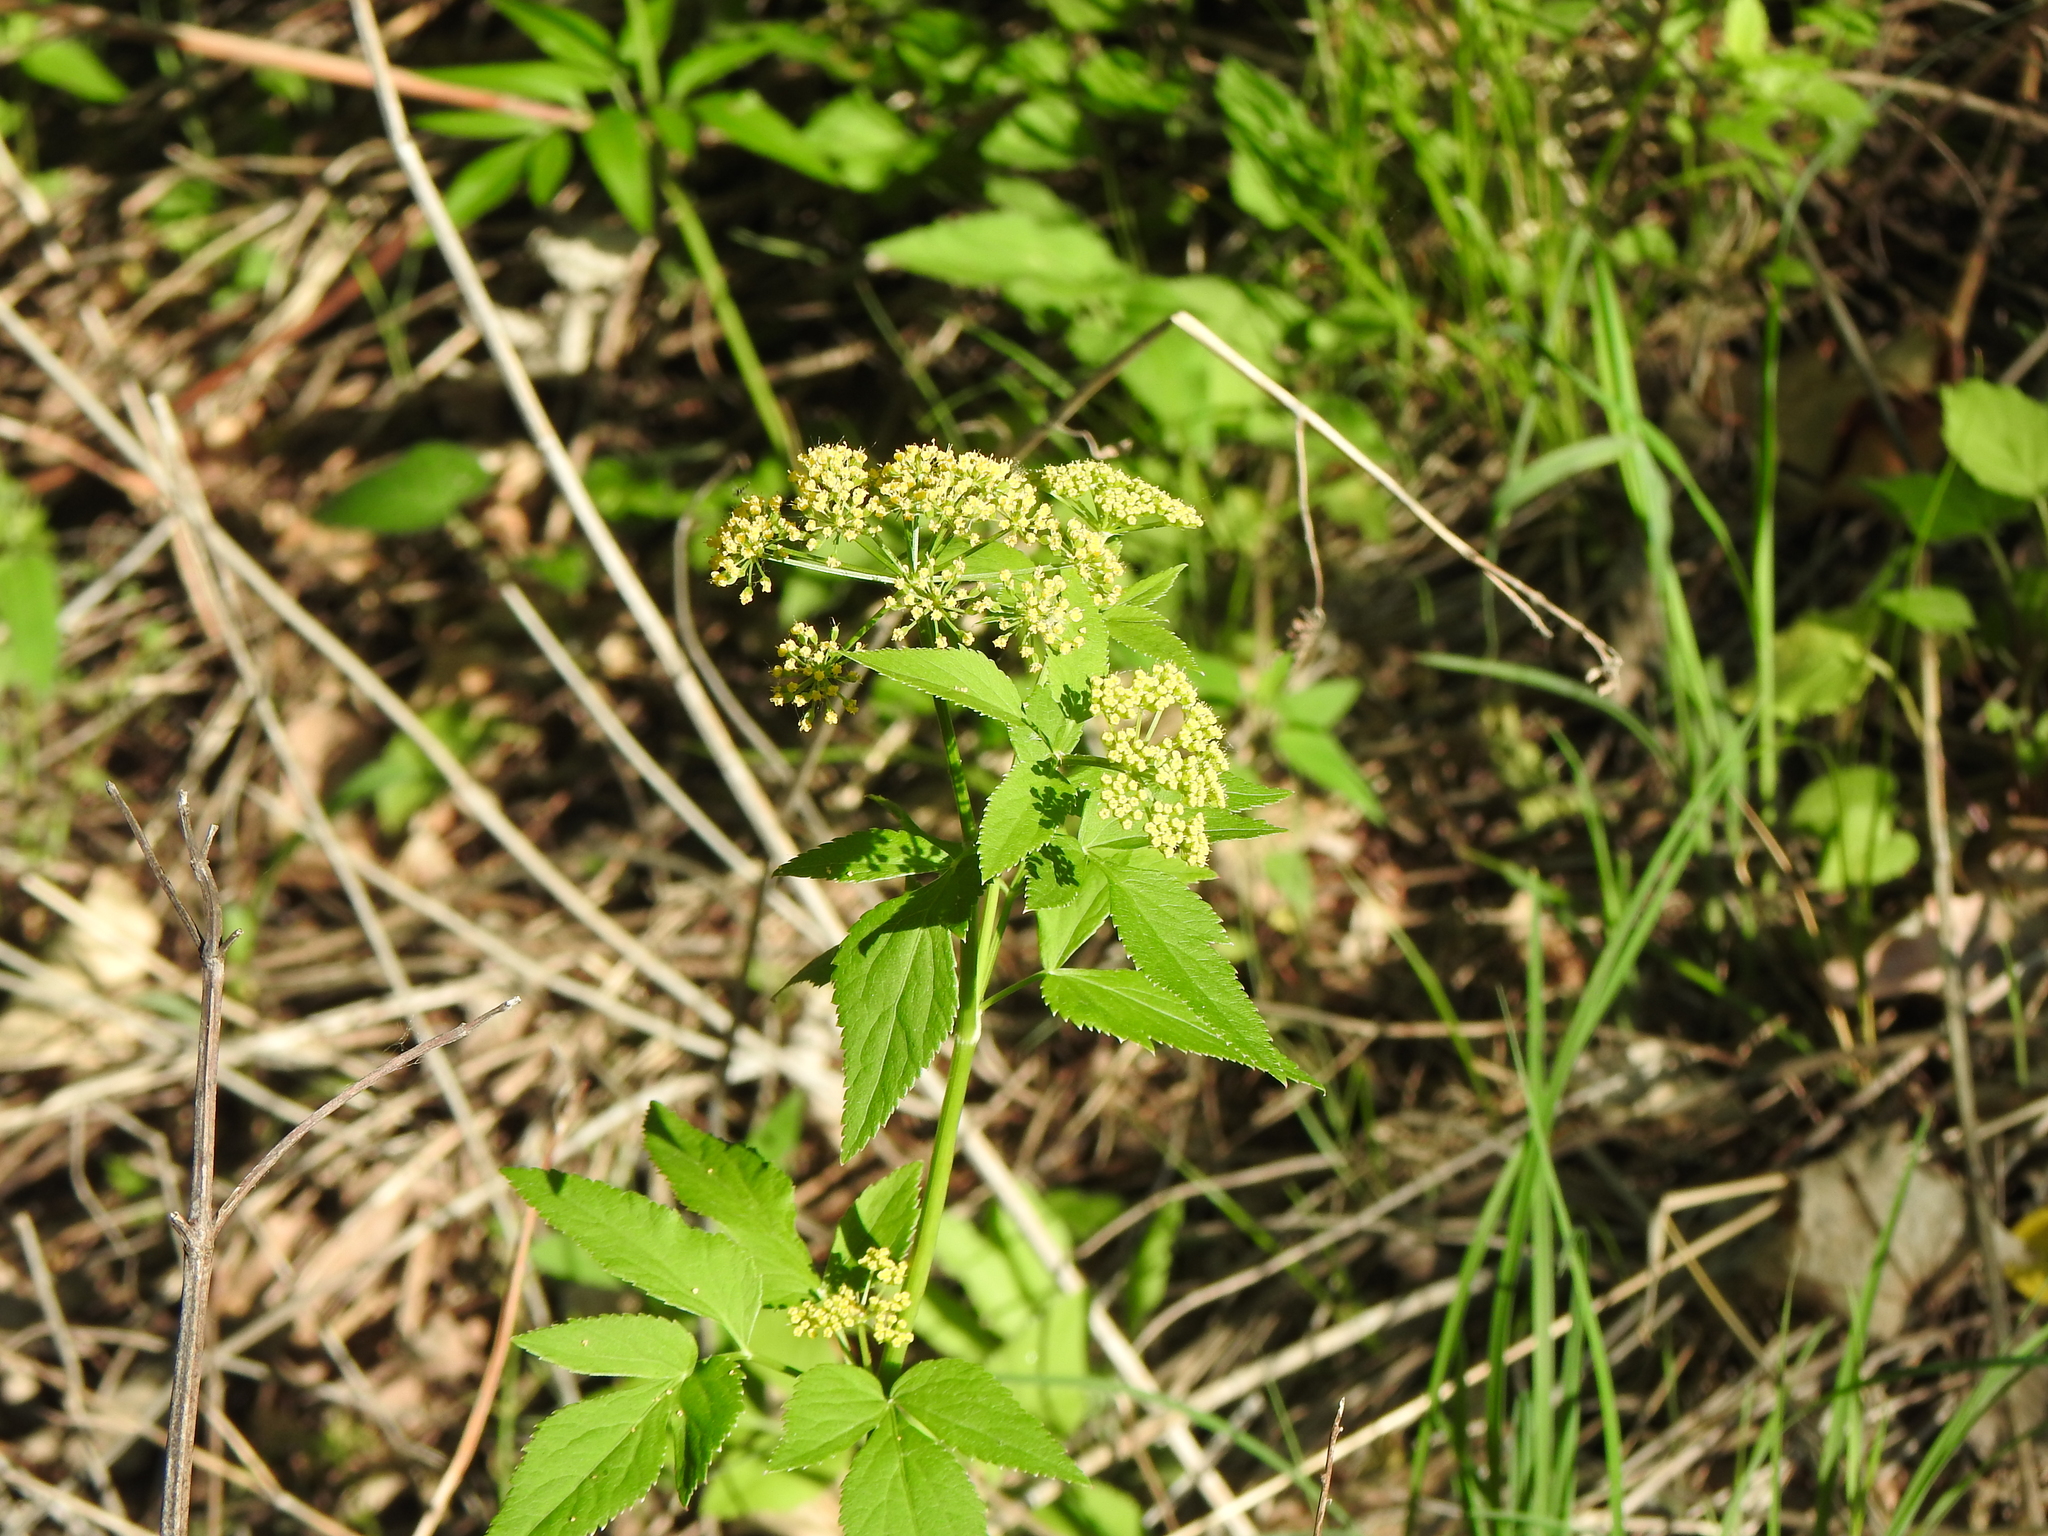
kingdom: Plantae
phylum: Tracheophyta
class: Magnoliopsida
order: Apiales
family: Apiaceae
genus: Zizia
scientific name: Zizia aurea
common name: Golden alexanders
